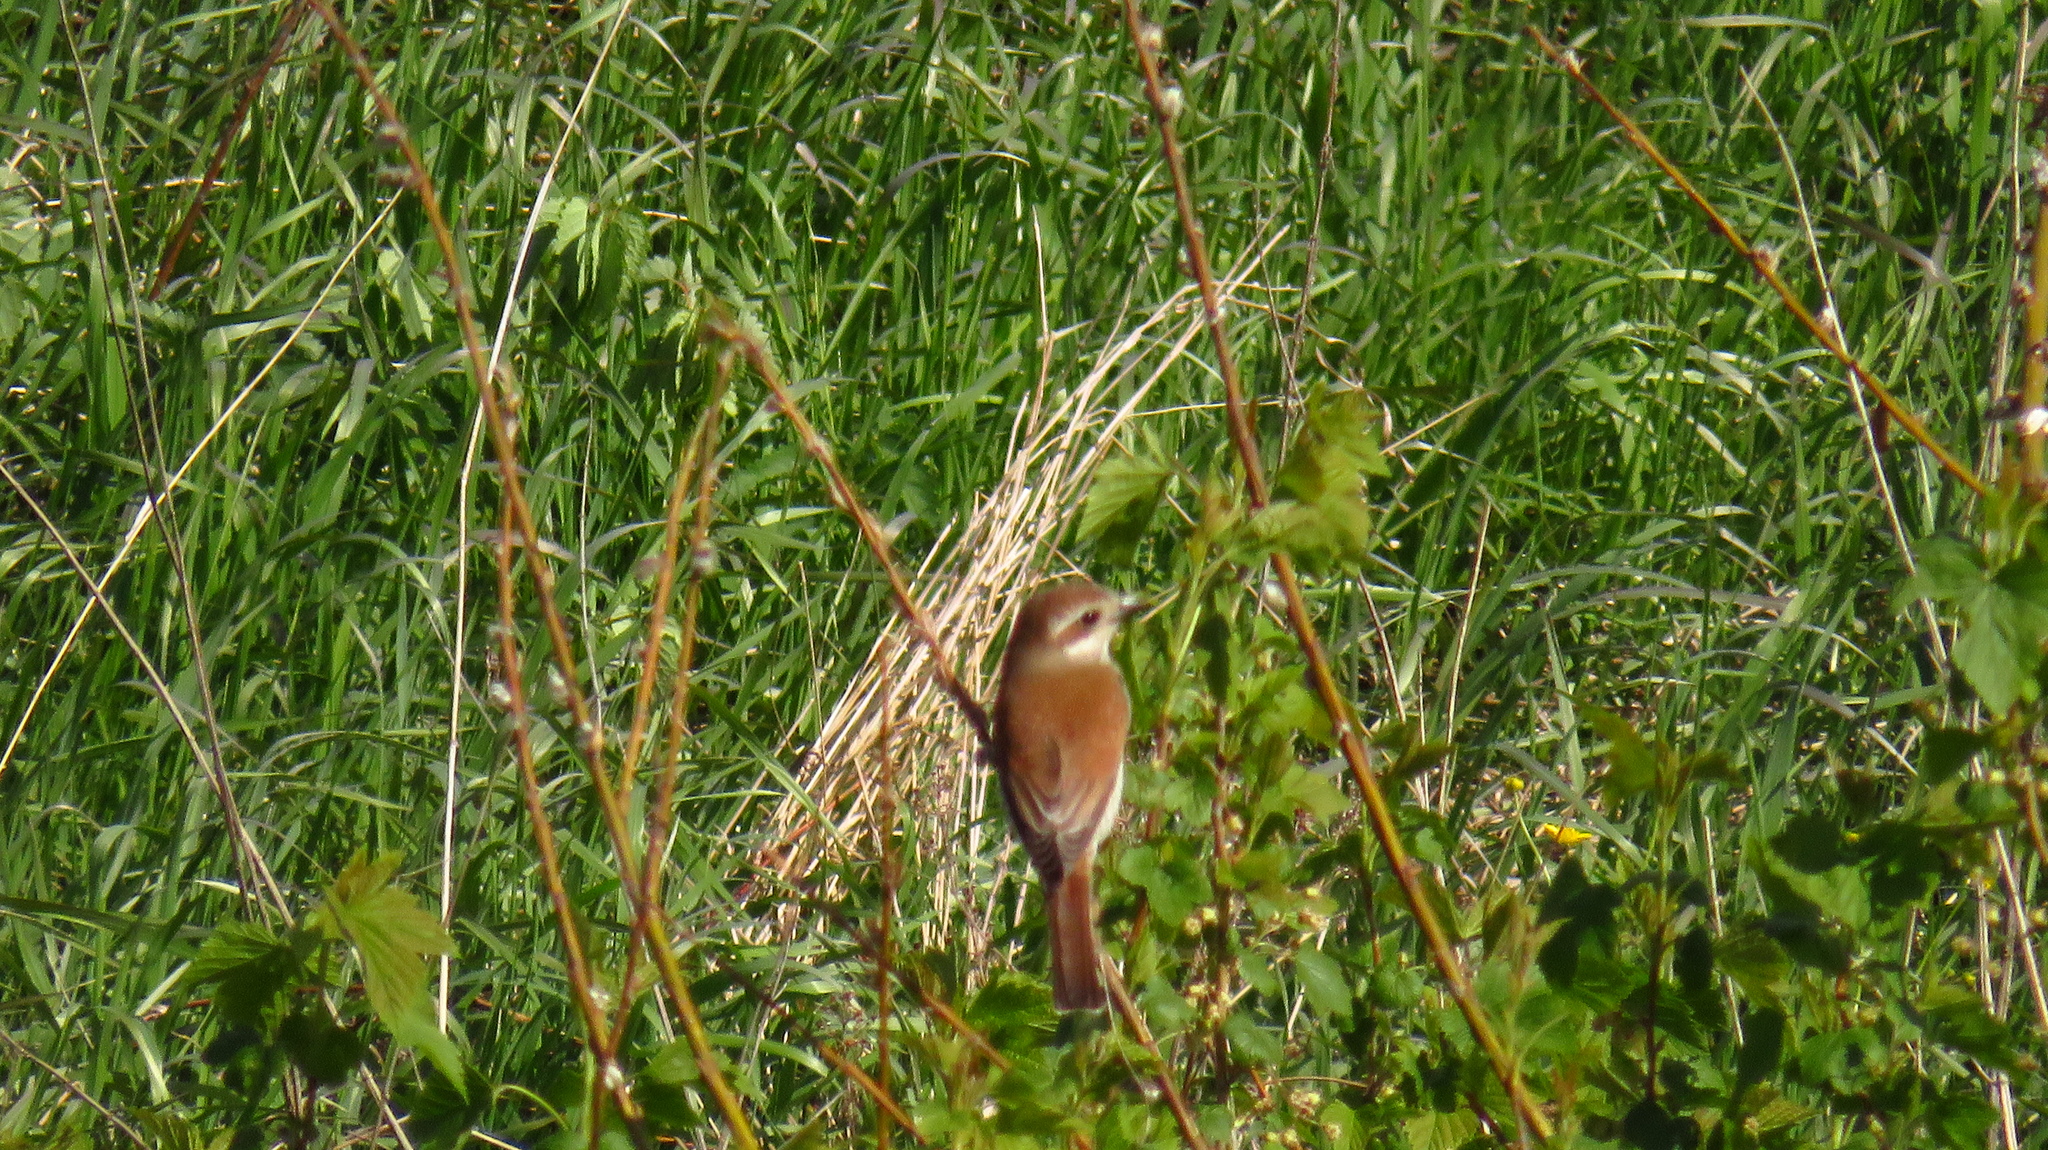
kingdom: Animalia
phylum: Chordata
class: Aves
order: Passeriformes
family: Laniidae
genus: Lanius
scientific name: Lanius collurio
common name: Red-backed shrike
